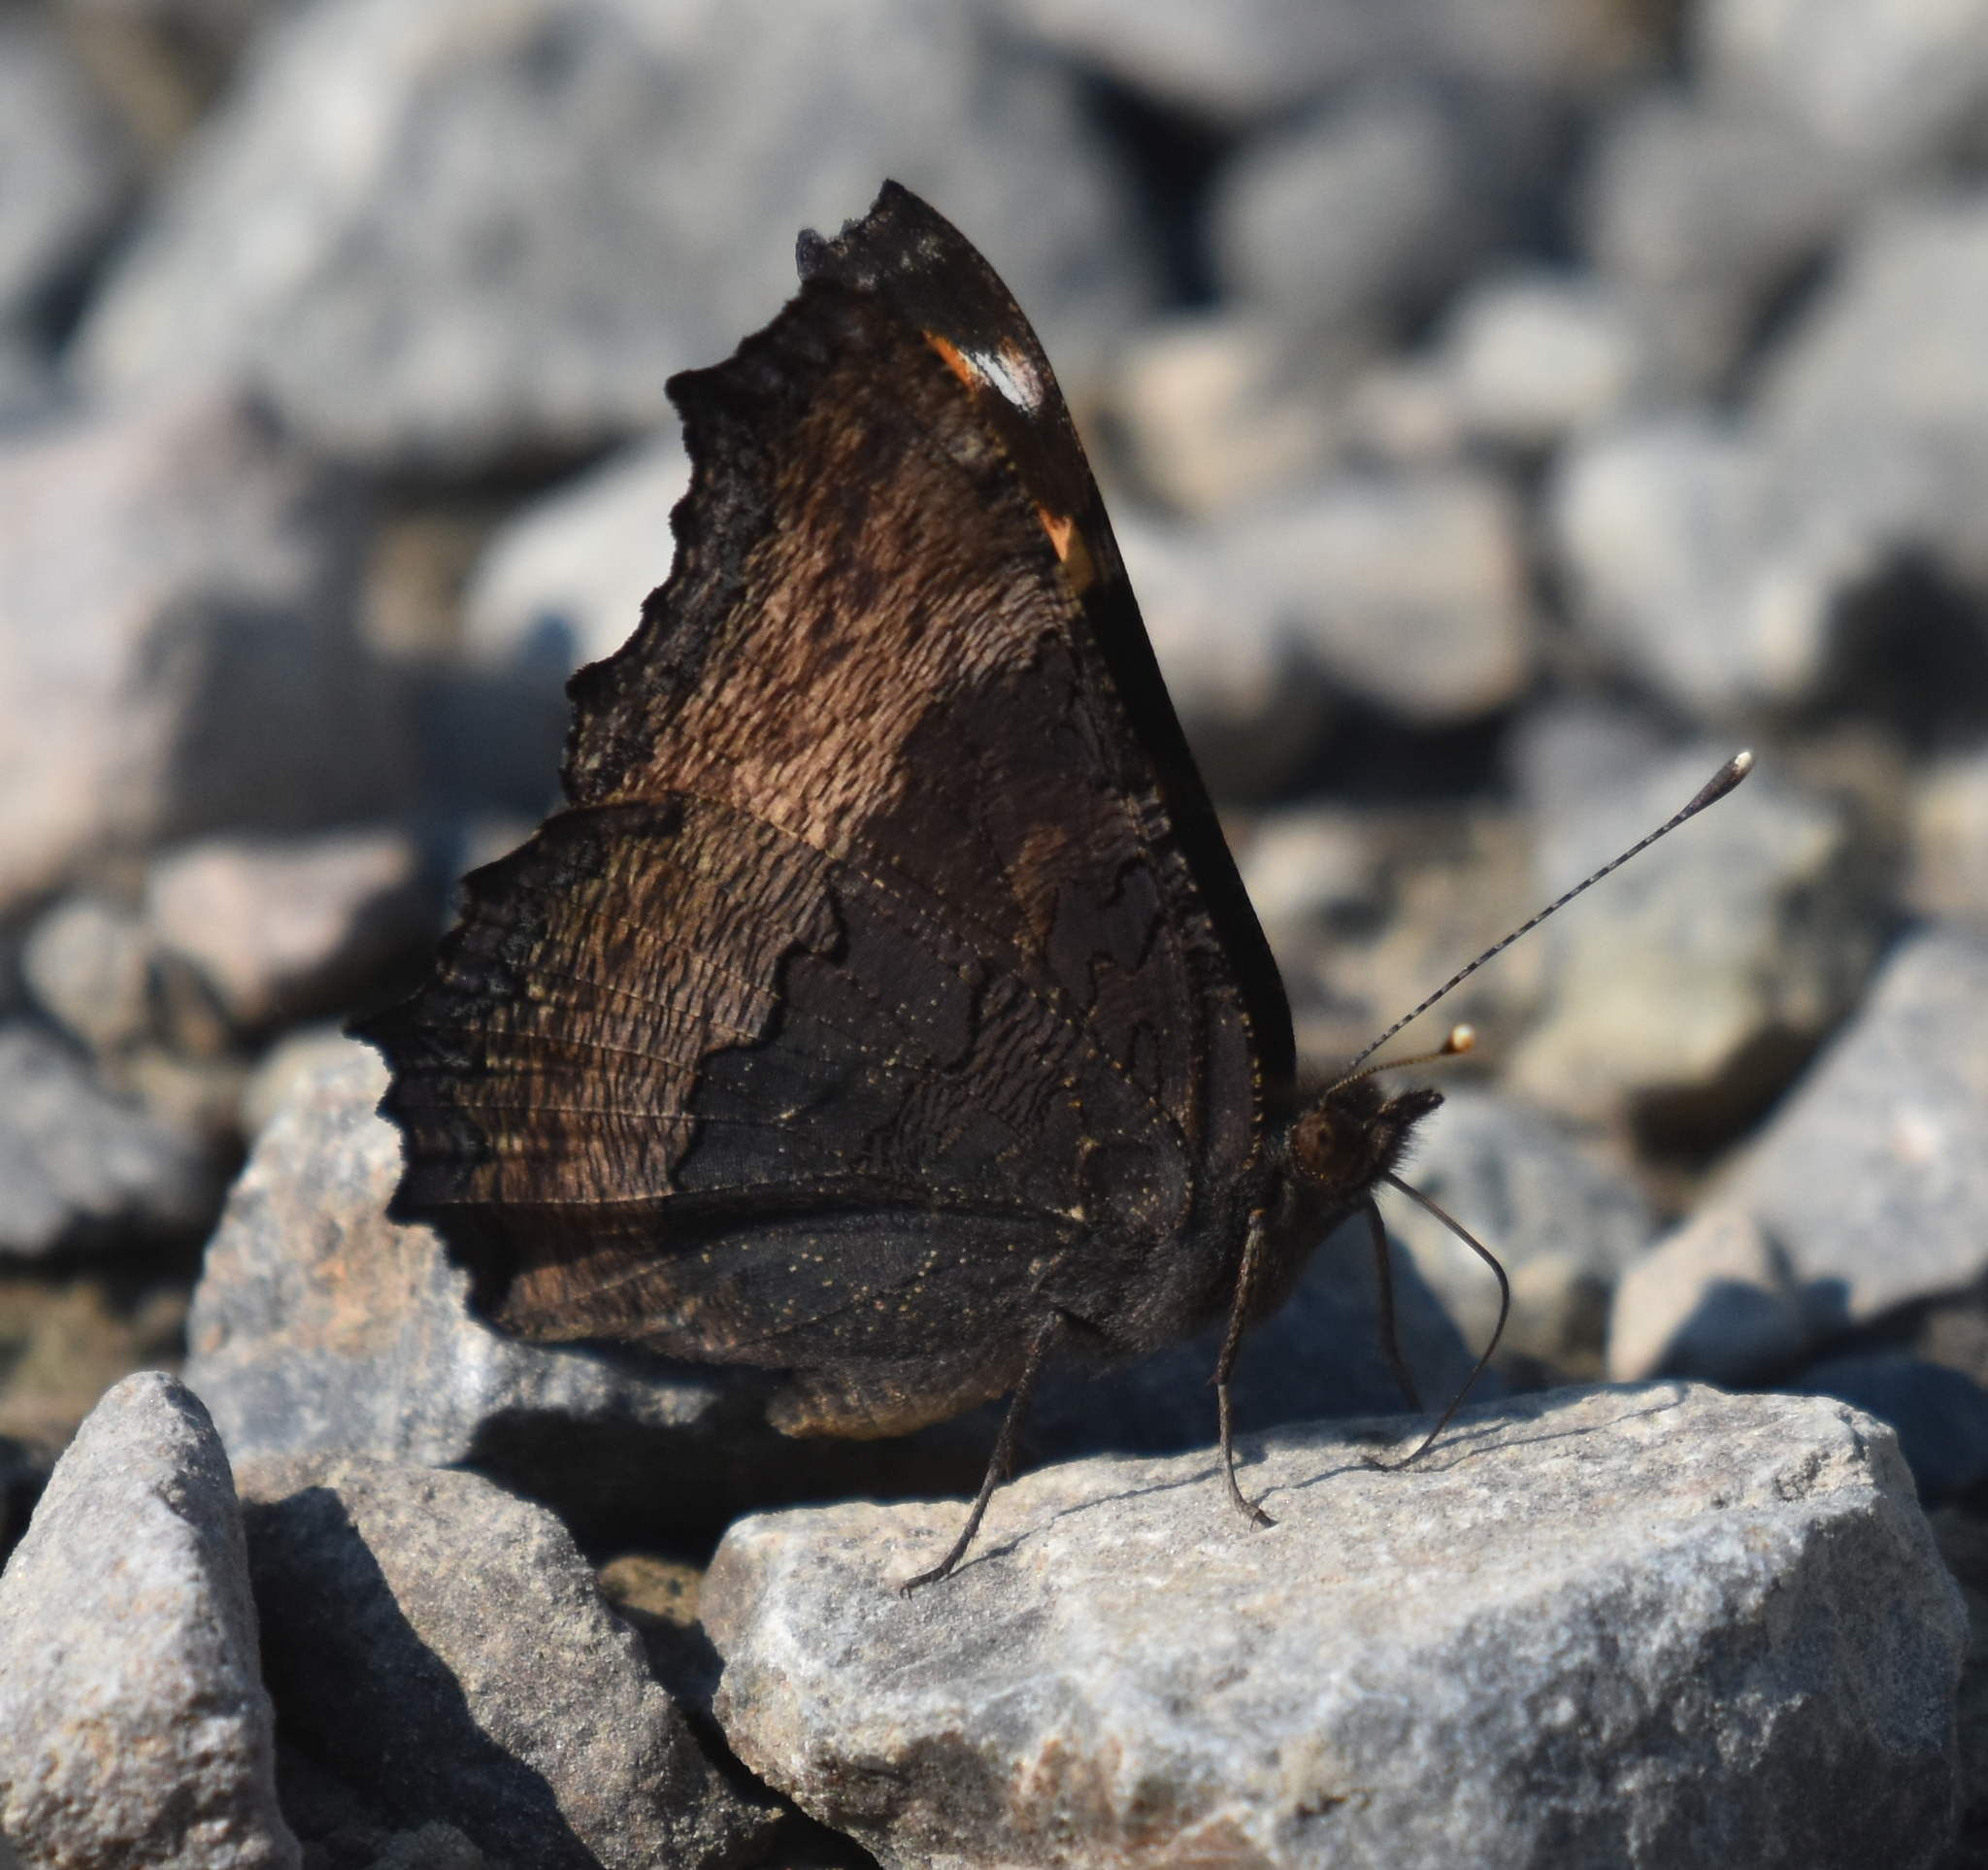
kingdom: Animalia
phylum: Arthropoda
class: Insecta
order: Lepidoptera
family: Nymphalidae
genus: Aglais
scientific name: Aglais milberti
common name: Milbert's tortoiseshell
